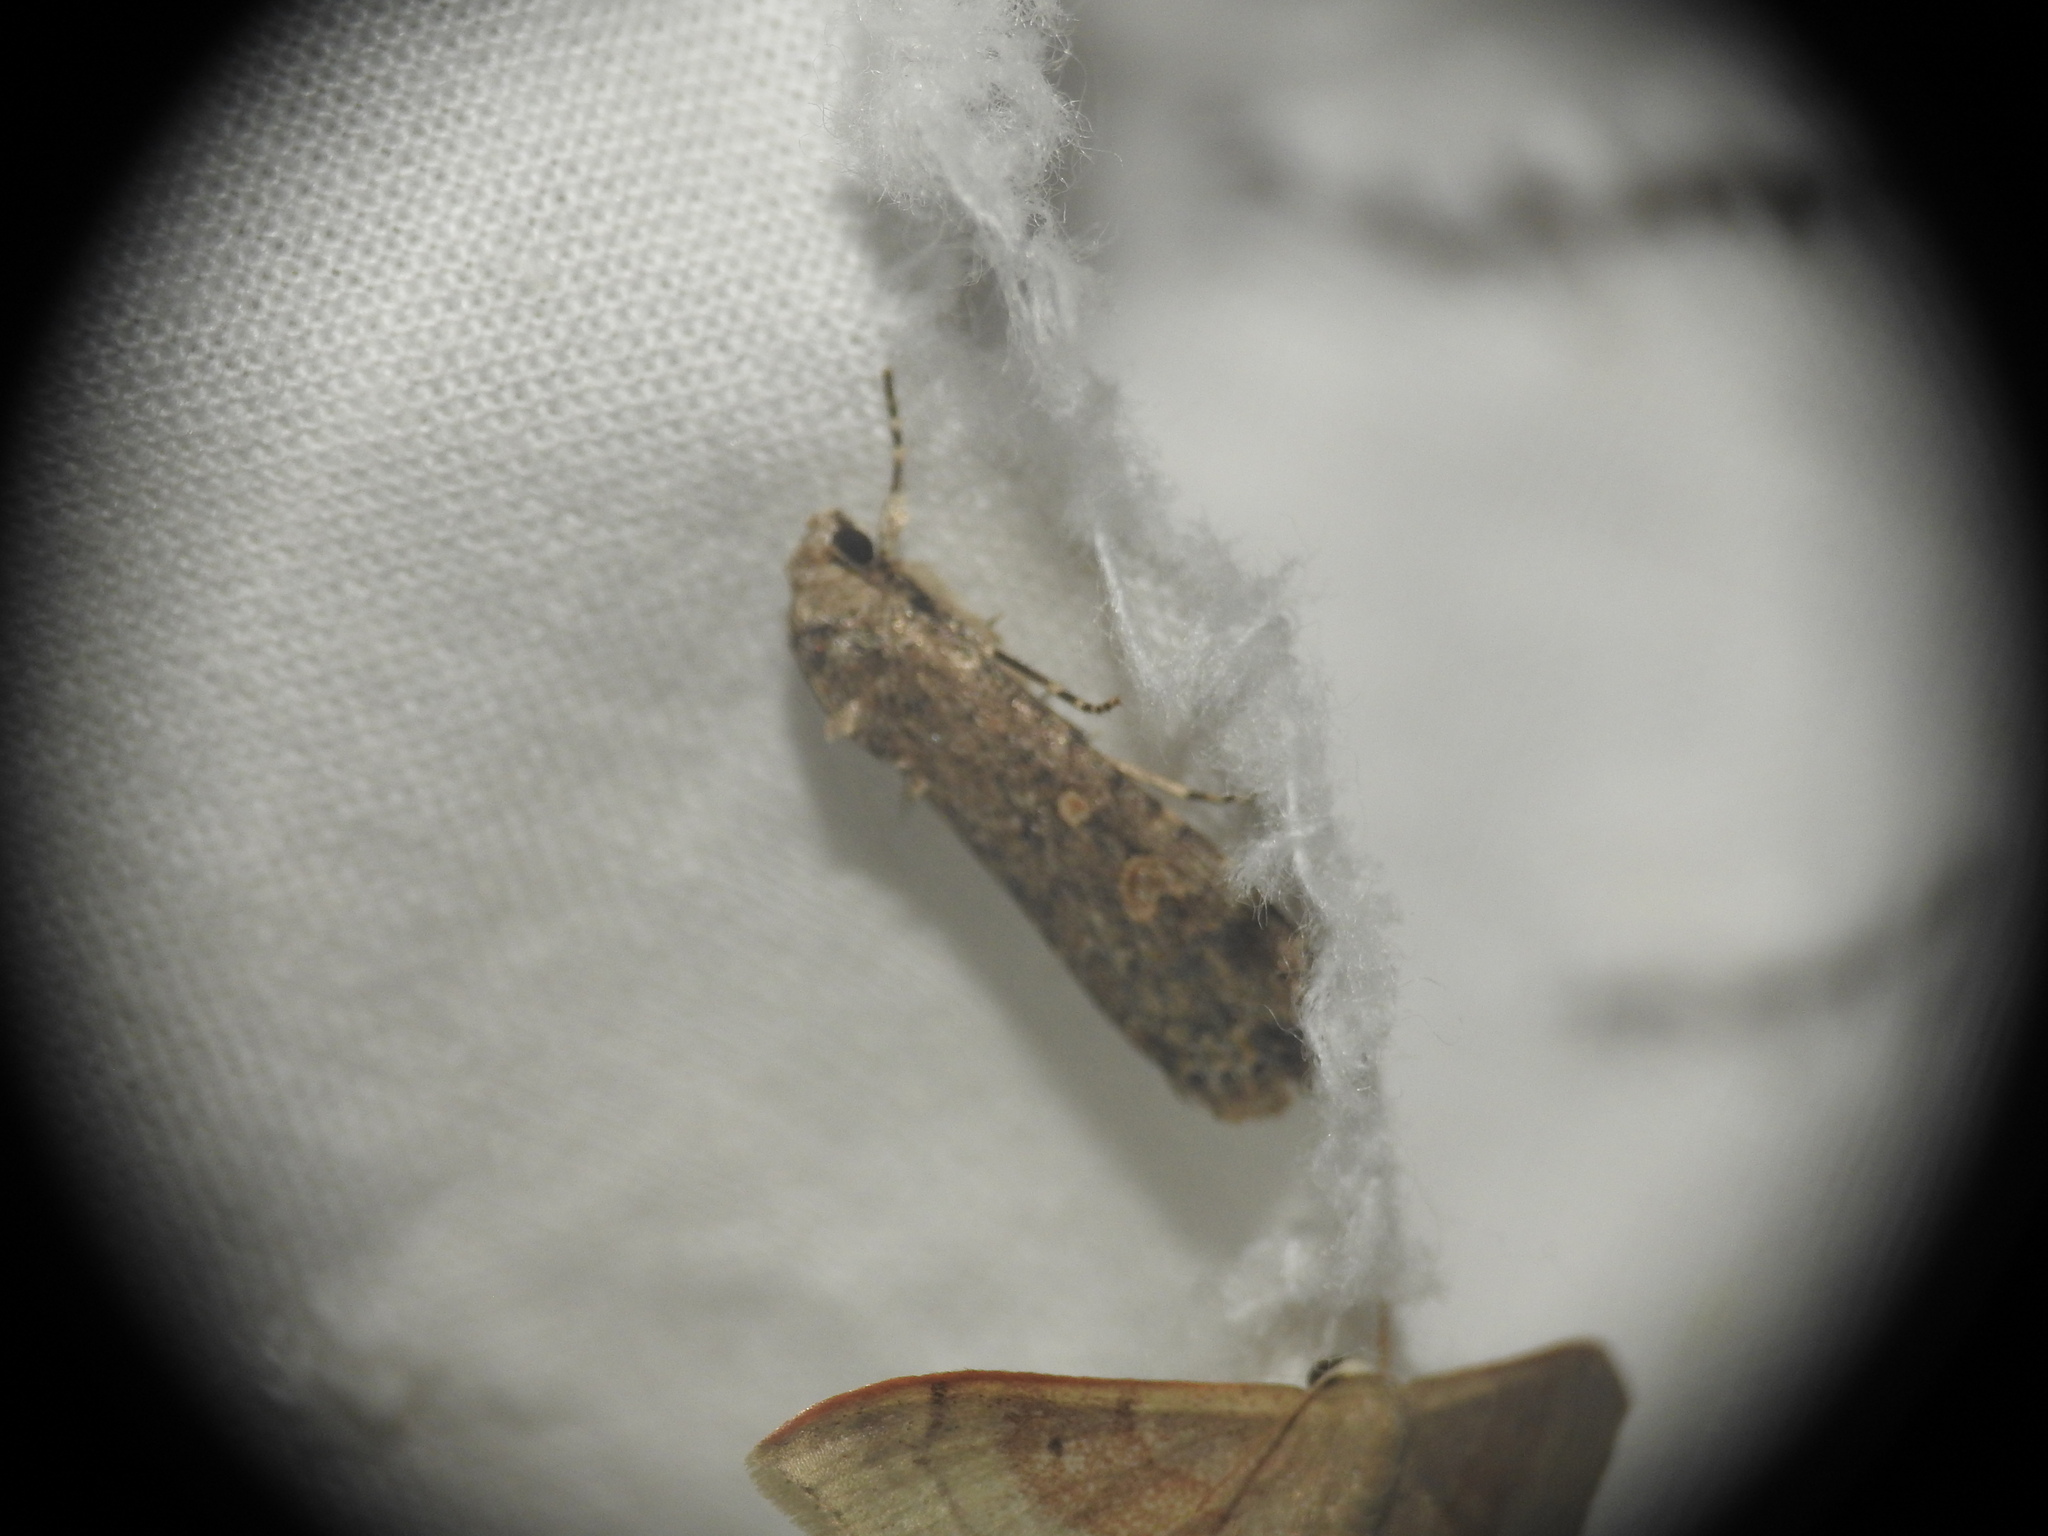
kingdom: Animalia
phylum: Arthropoda
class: Insecta
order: Lepidoptera
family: Noctuidae
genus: Spodoptera
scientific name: Spodoptera exigua
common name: Beet armyworm
